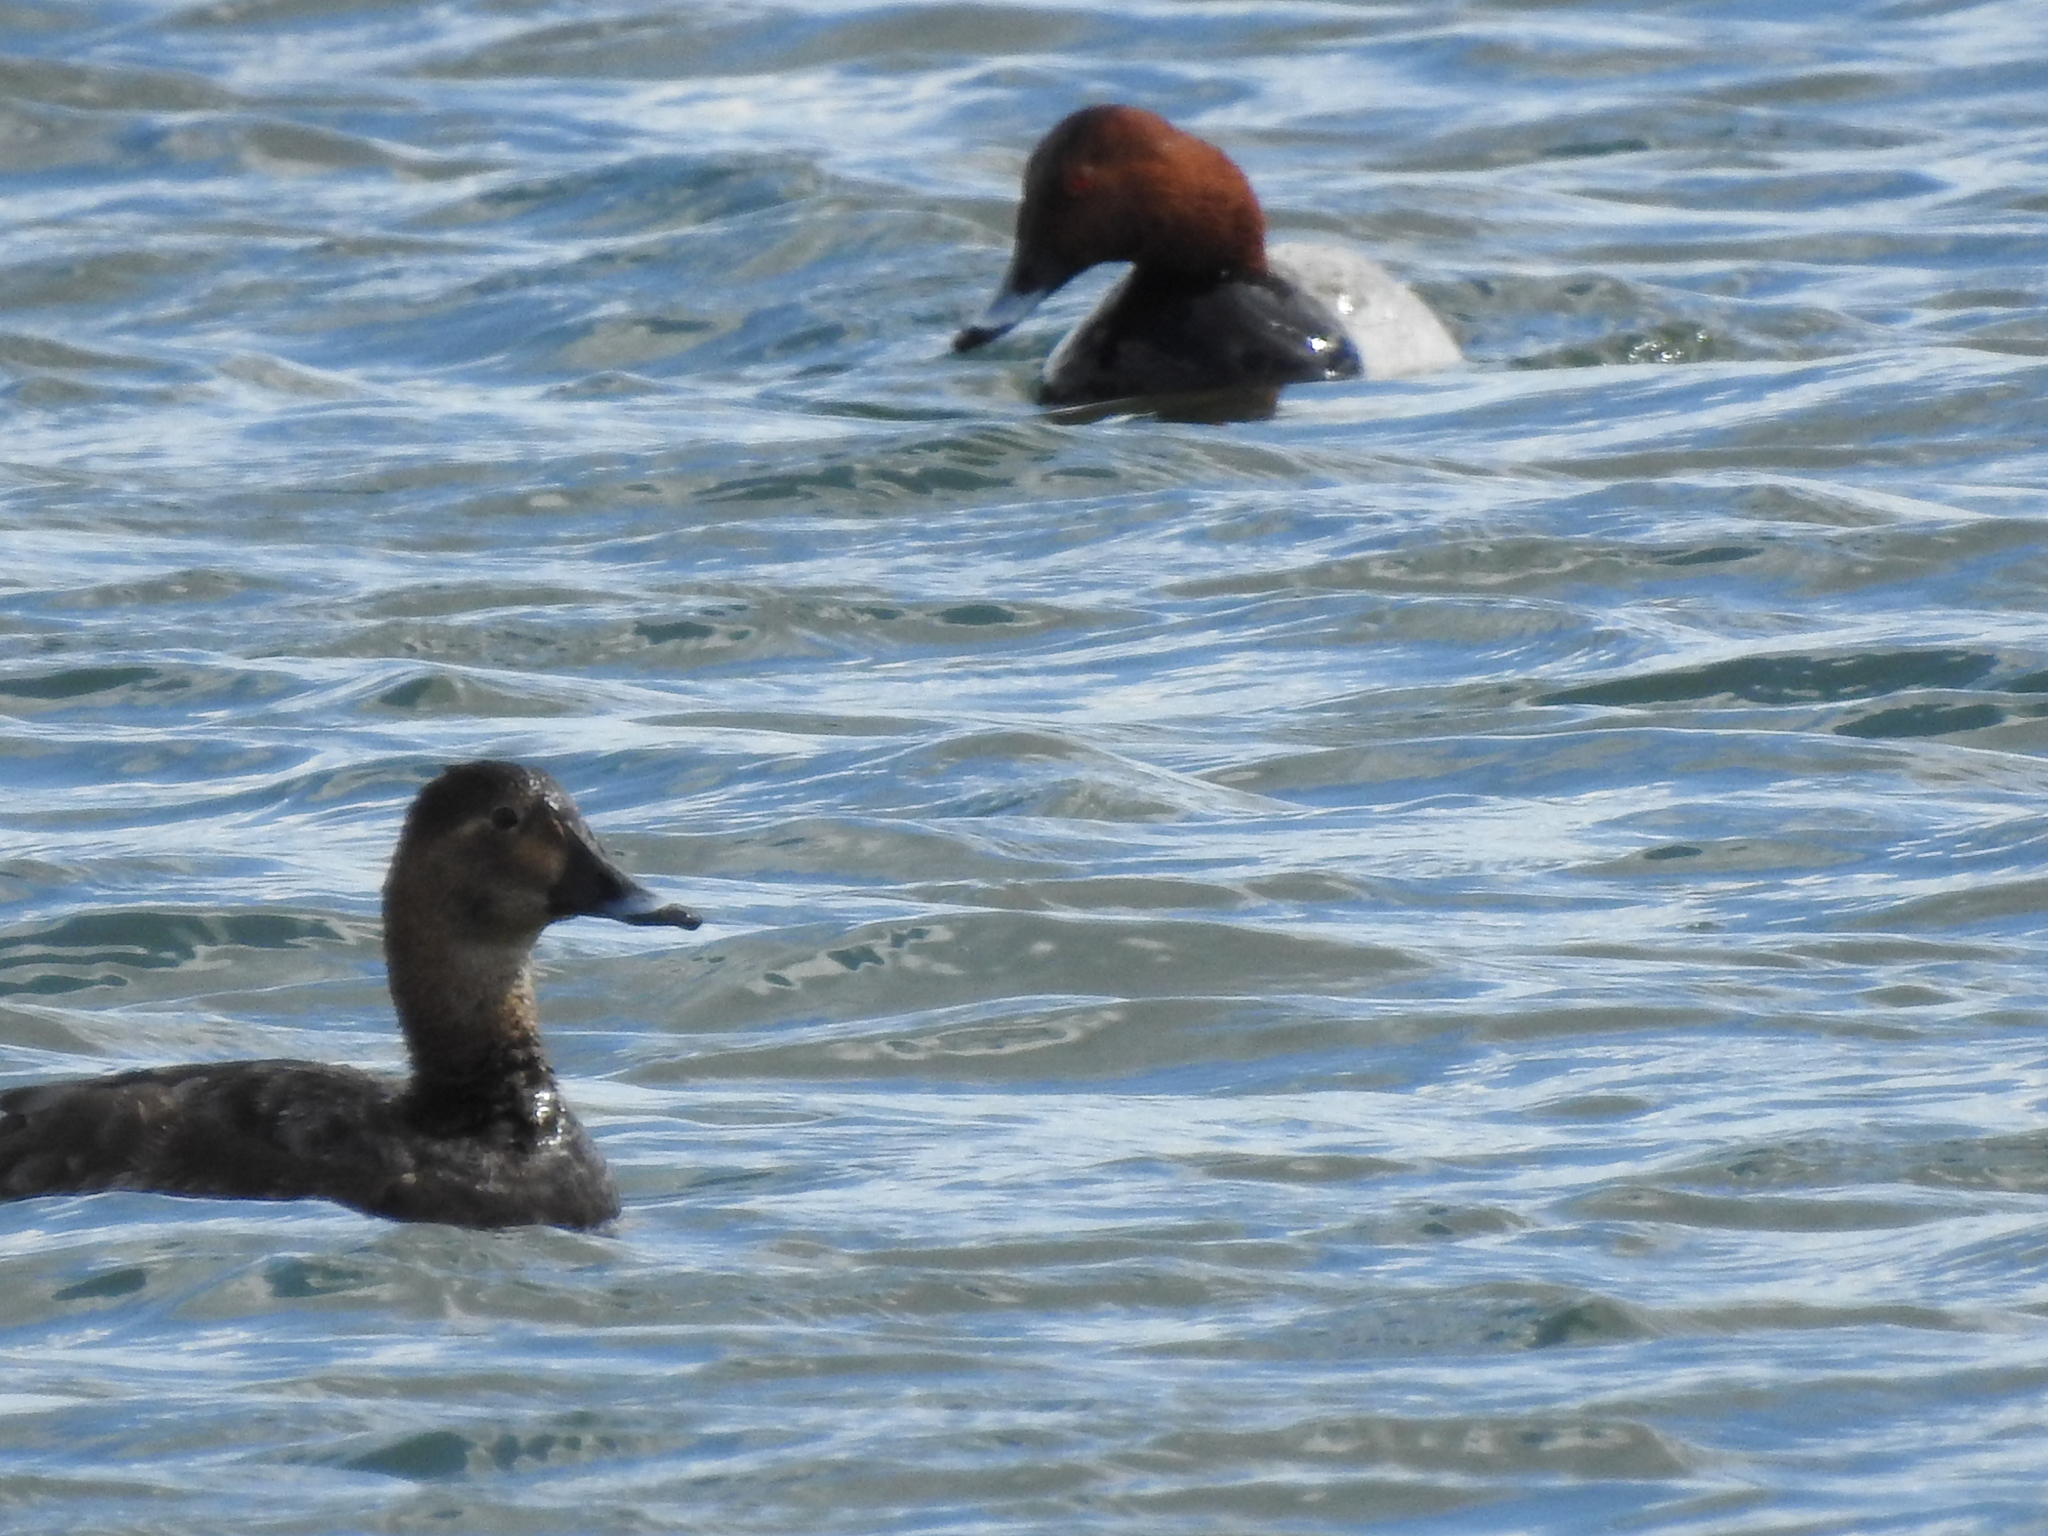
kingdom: Animalia
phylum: Chordata
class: Aves
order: Anseriformes
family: Anatidae
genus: Aythya
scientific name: Aythya ferina
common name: Common pochard
